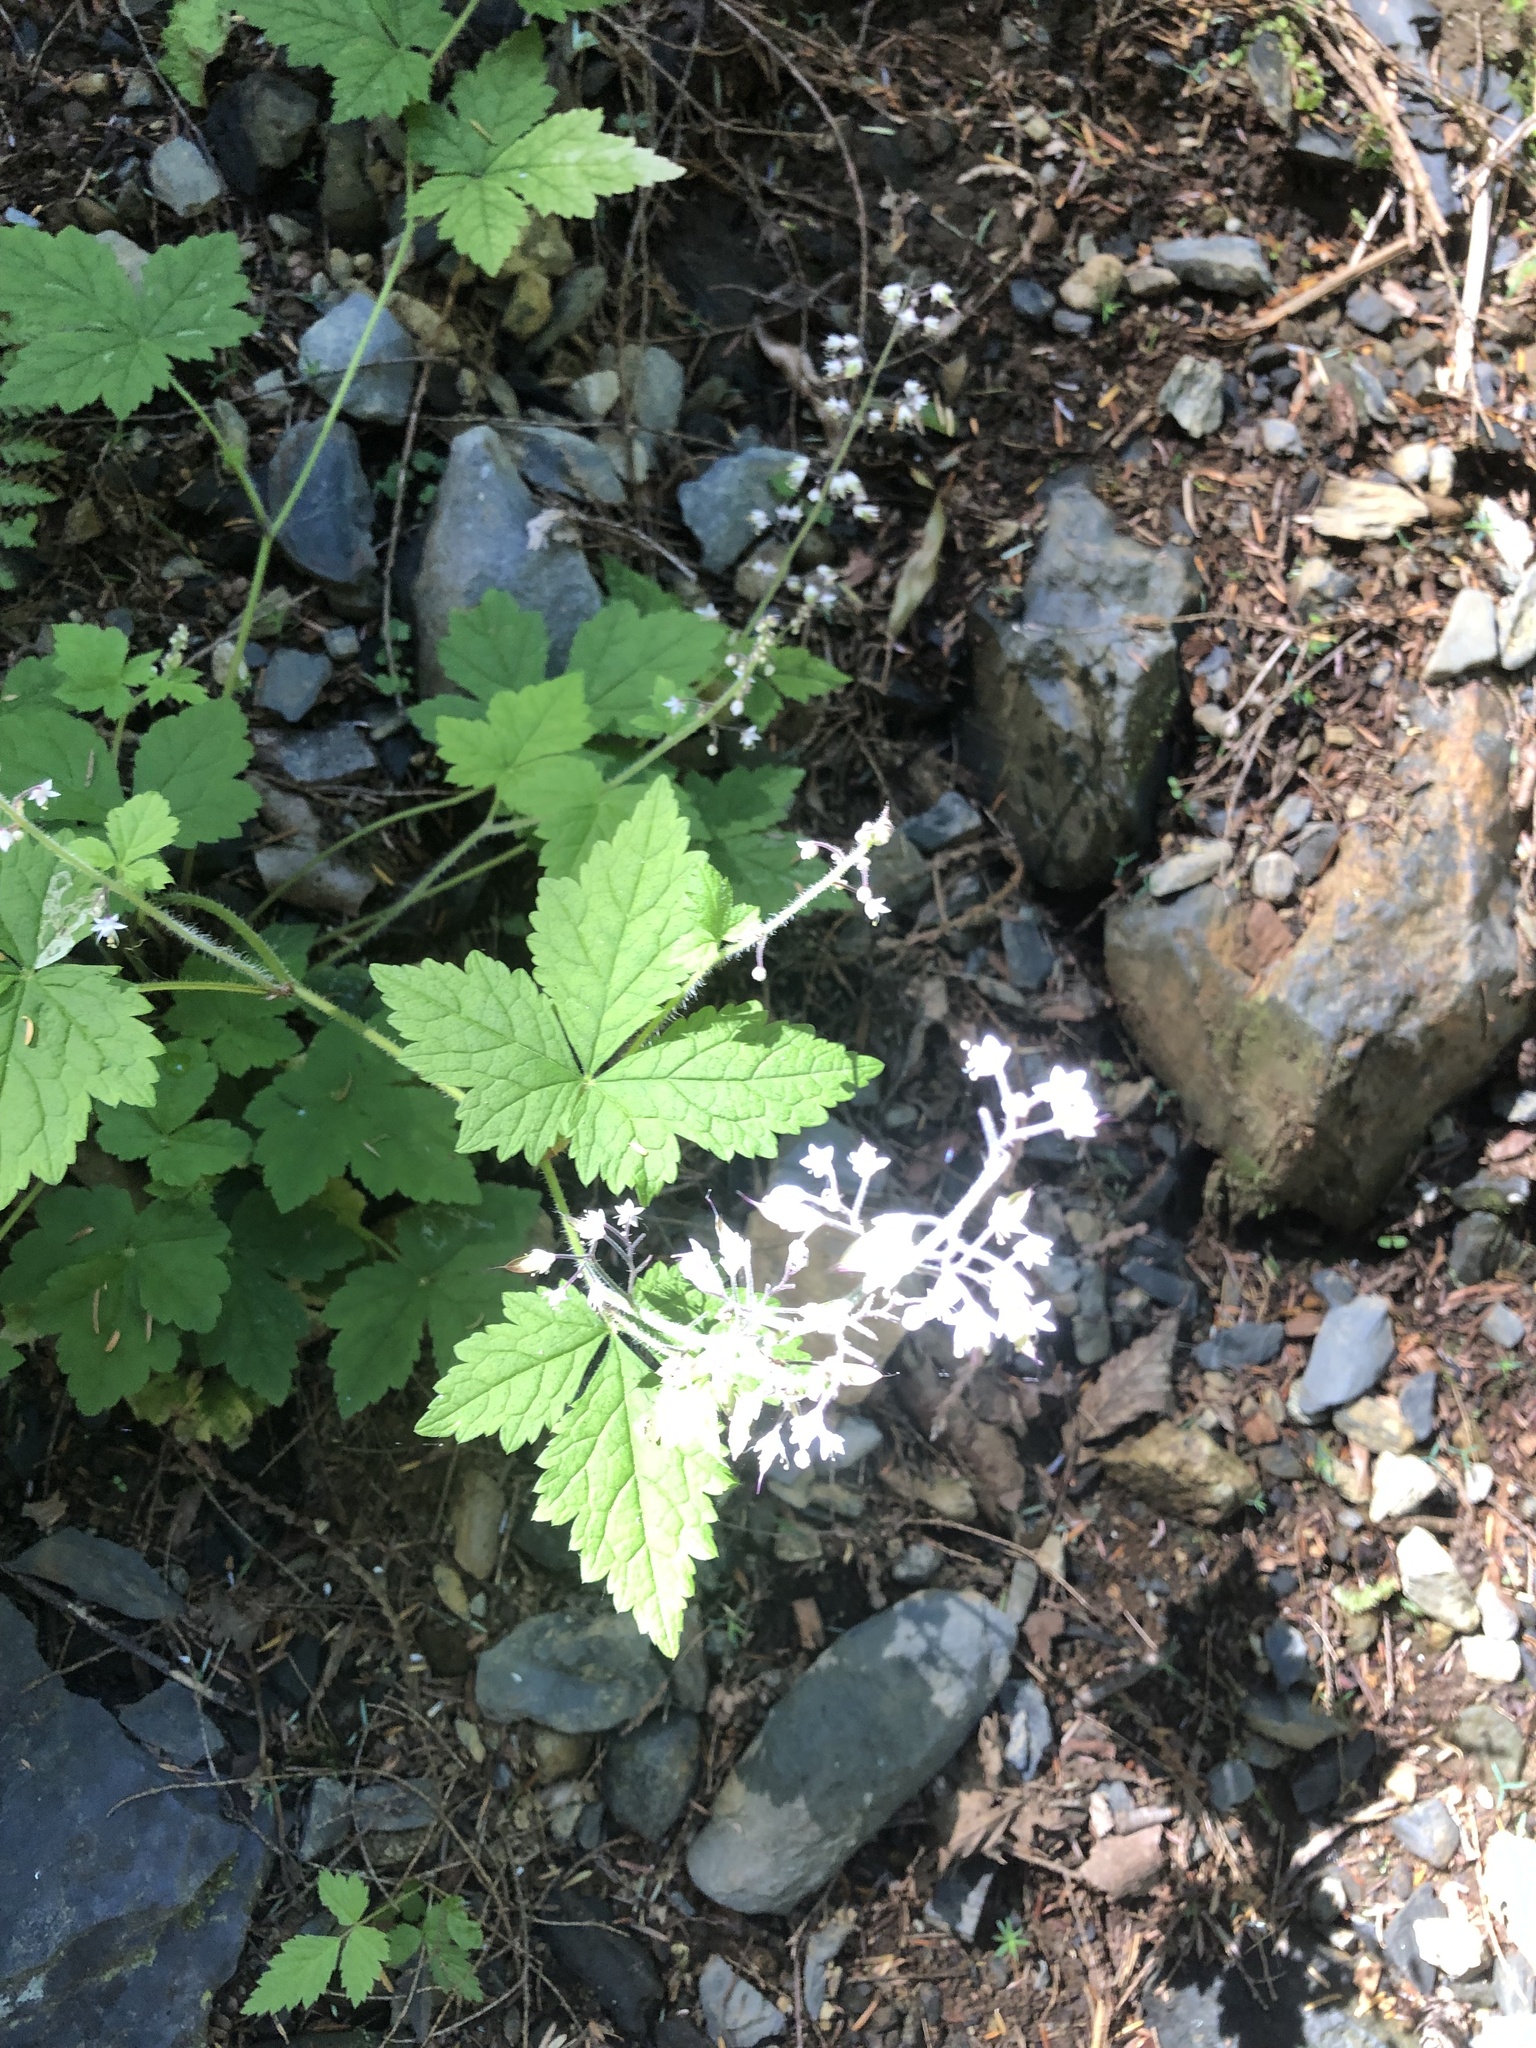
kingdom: Plantae
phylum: Tracheophyta
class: Magnoliopsida
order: Saxifragales
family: Saxifragaceae
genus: Tiarella
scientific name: Tiarella trifoliata
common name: Sugar-scoop
